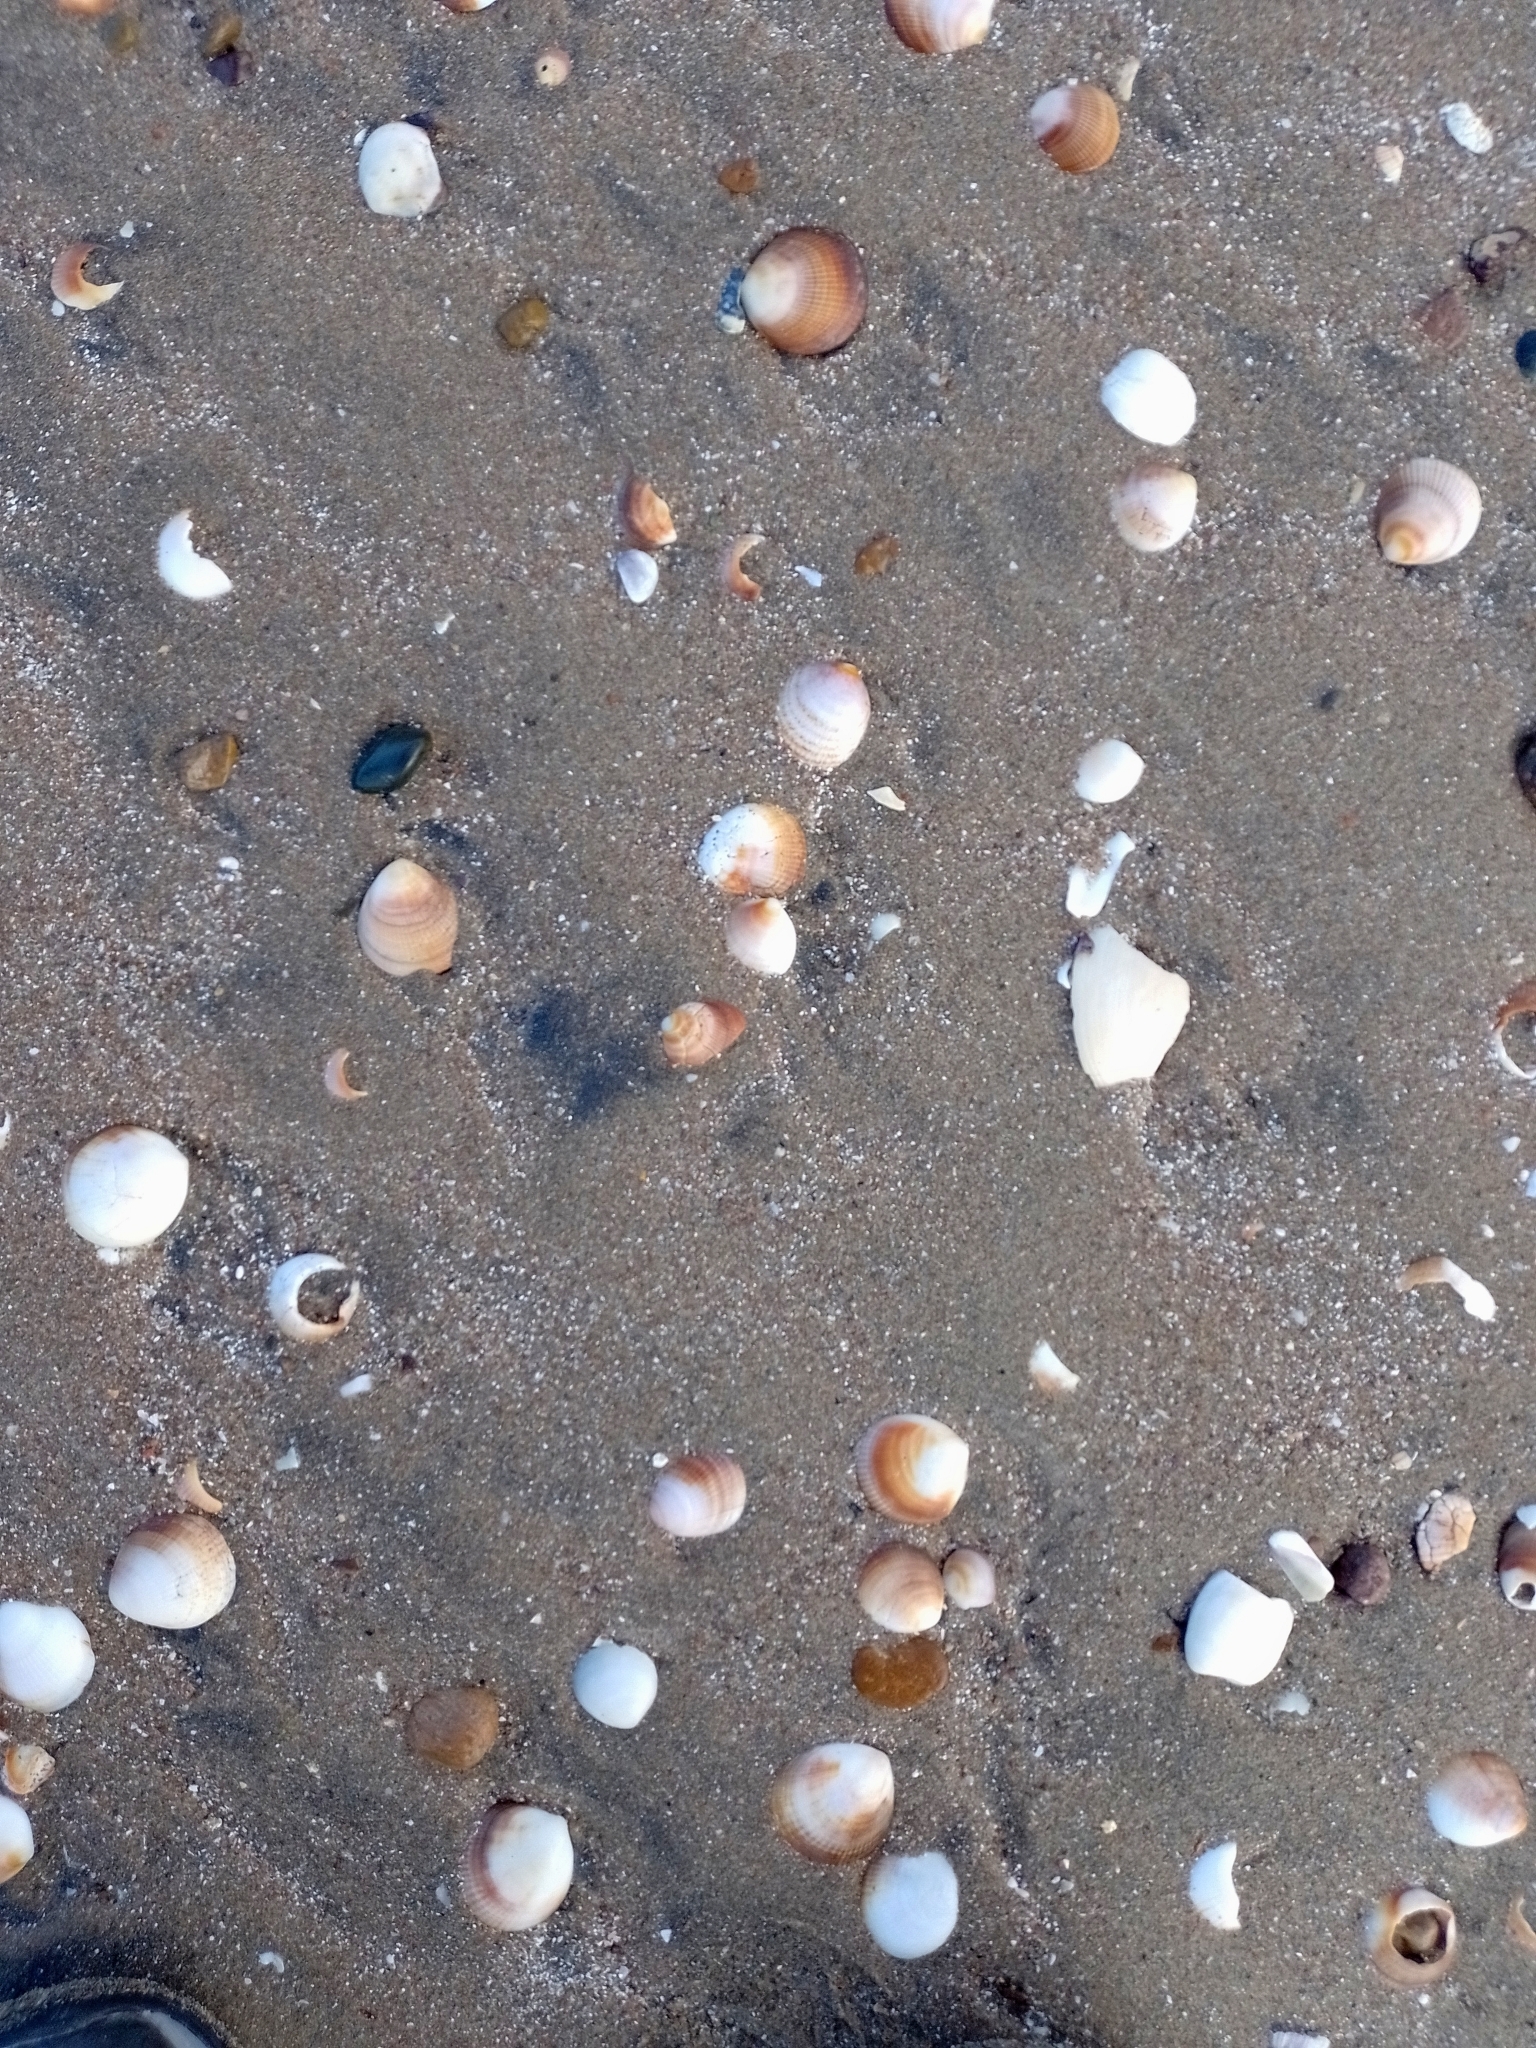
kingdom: Animalia
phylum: Mollusca
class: Bivalvia
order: Arcida
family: Glycymerididae
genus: Glycymeris
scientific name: Glycymeris longior
